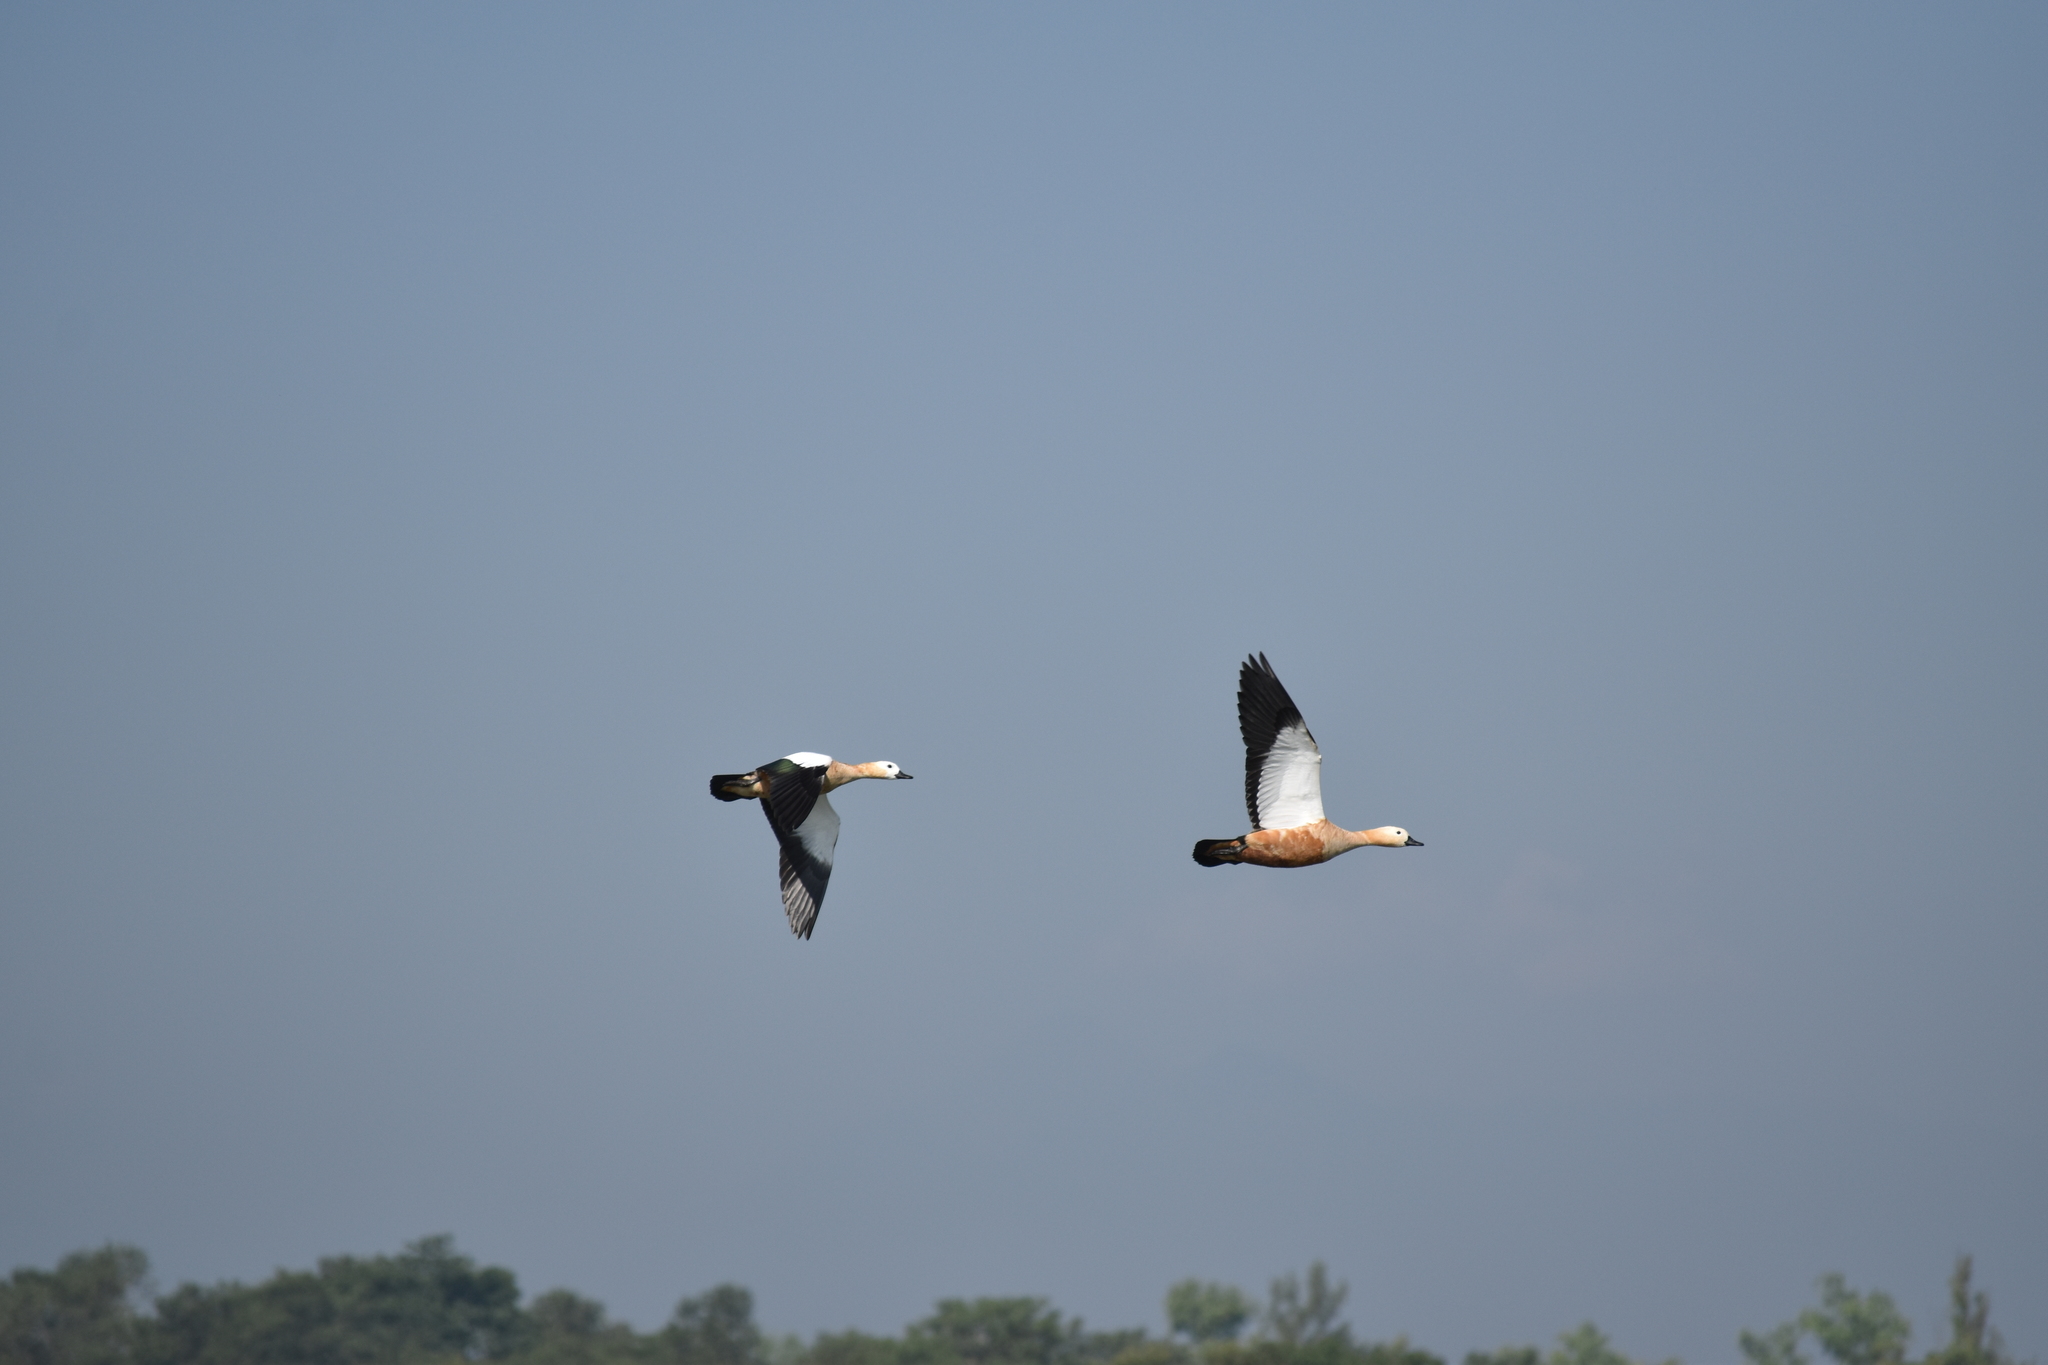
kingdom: Animalia
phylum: Chordata
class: Aves
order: Anseriformes
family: Anatidae
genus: Tadorna
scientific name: Tadorna ferruginea
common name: Ruddy shelduck
